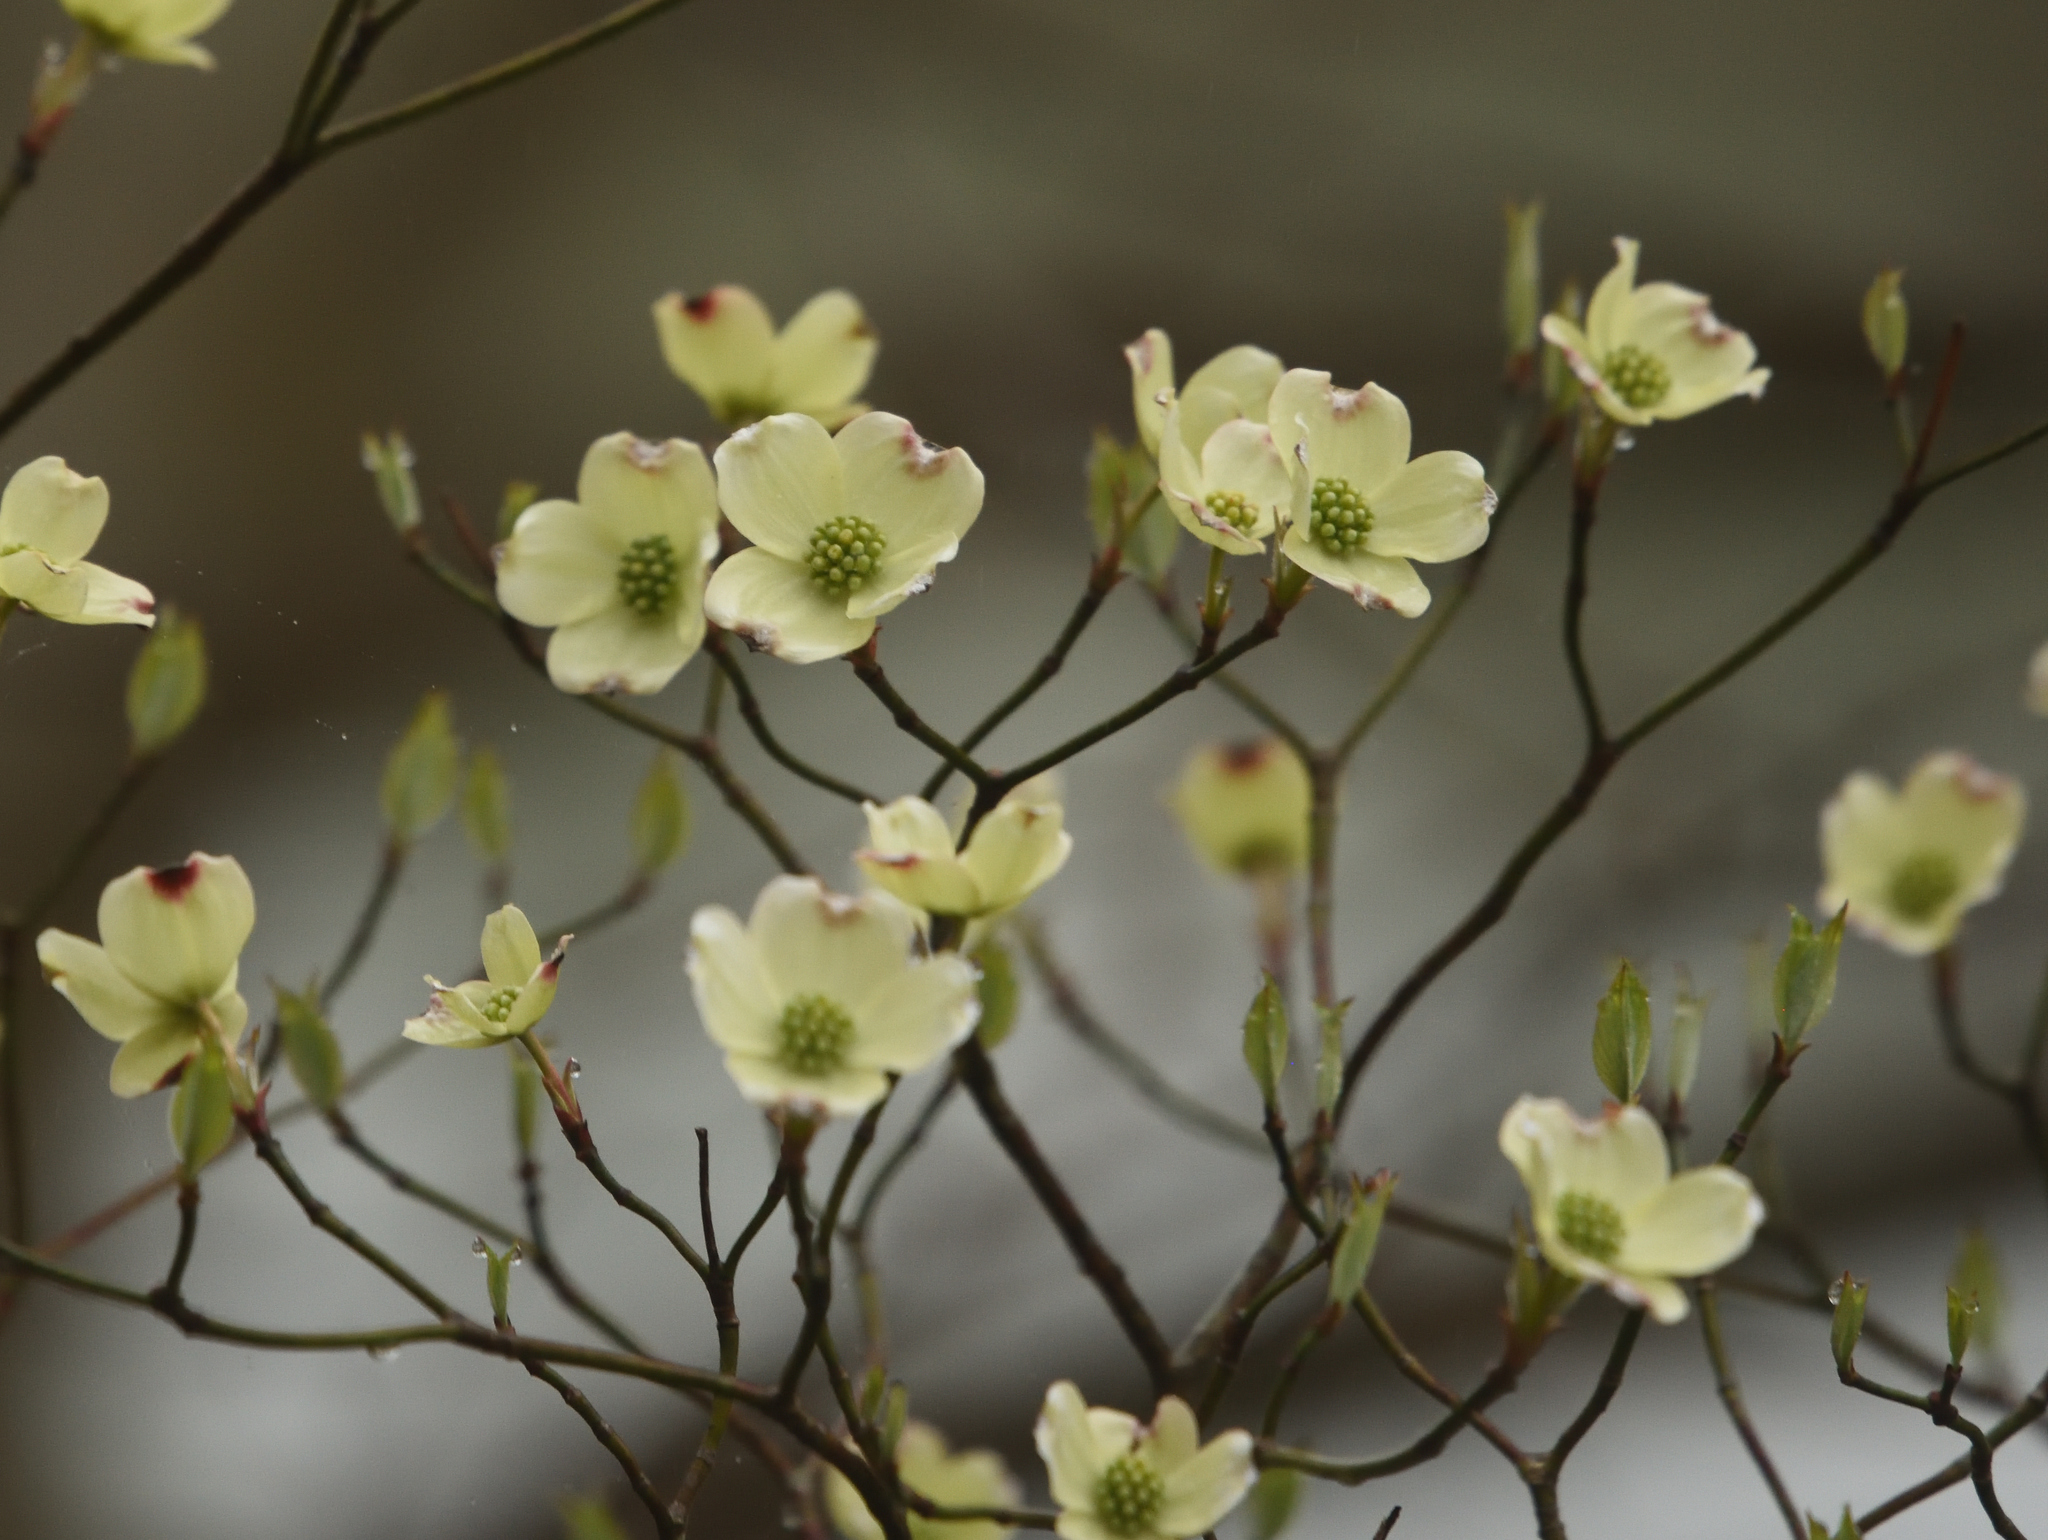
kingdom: Plantae
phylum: Tracheophyta
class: Magnoliopsida
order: Cornales
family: Cornaceae
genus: Cornus
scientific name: Cornus florida
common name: Flowering dogwood
